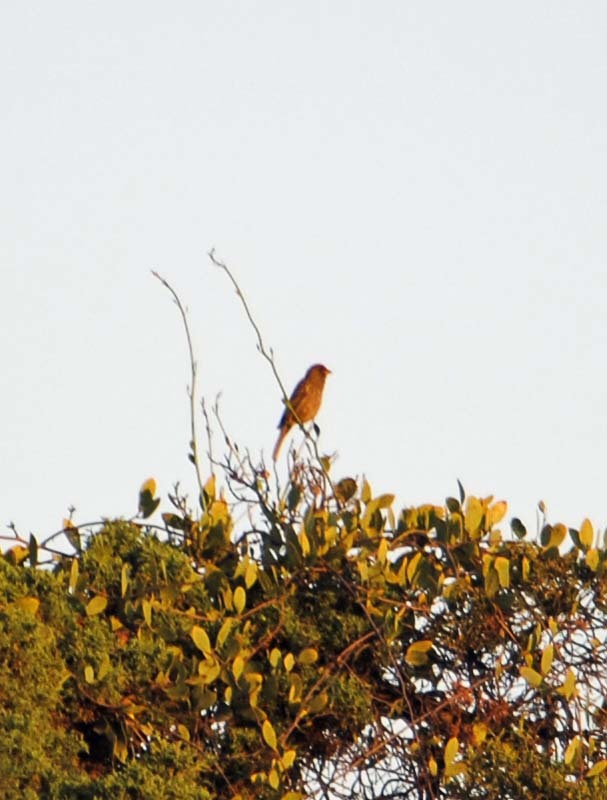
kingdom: Animalia
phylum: Chordata
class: Aves
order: Passeriformes
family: Passeridae
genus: Passer
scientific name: Passer domesticus
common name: House sparrow
